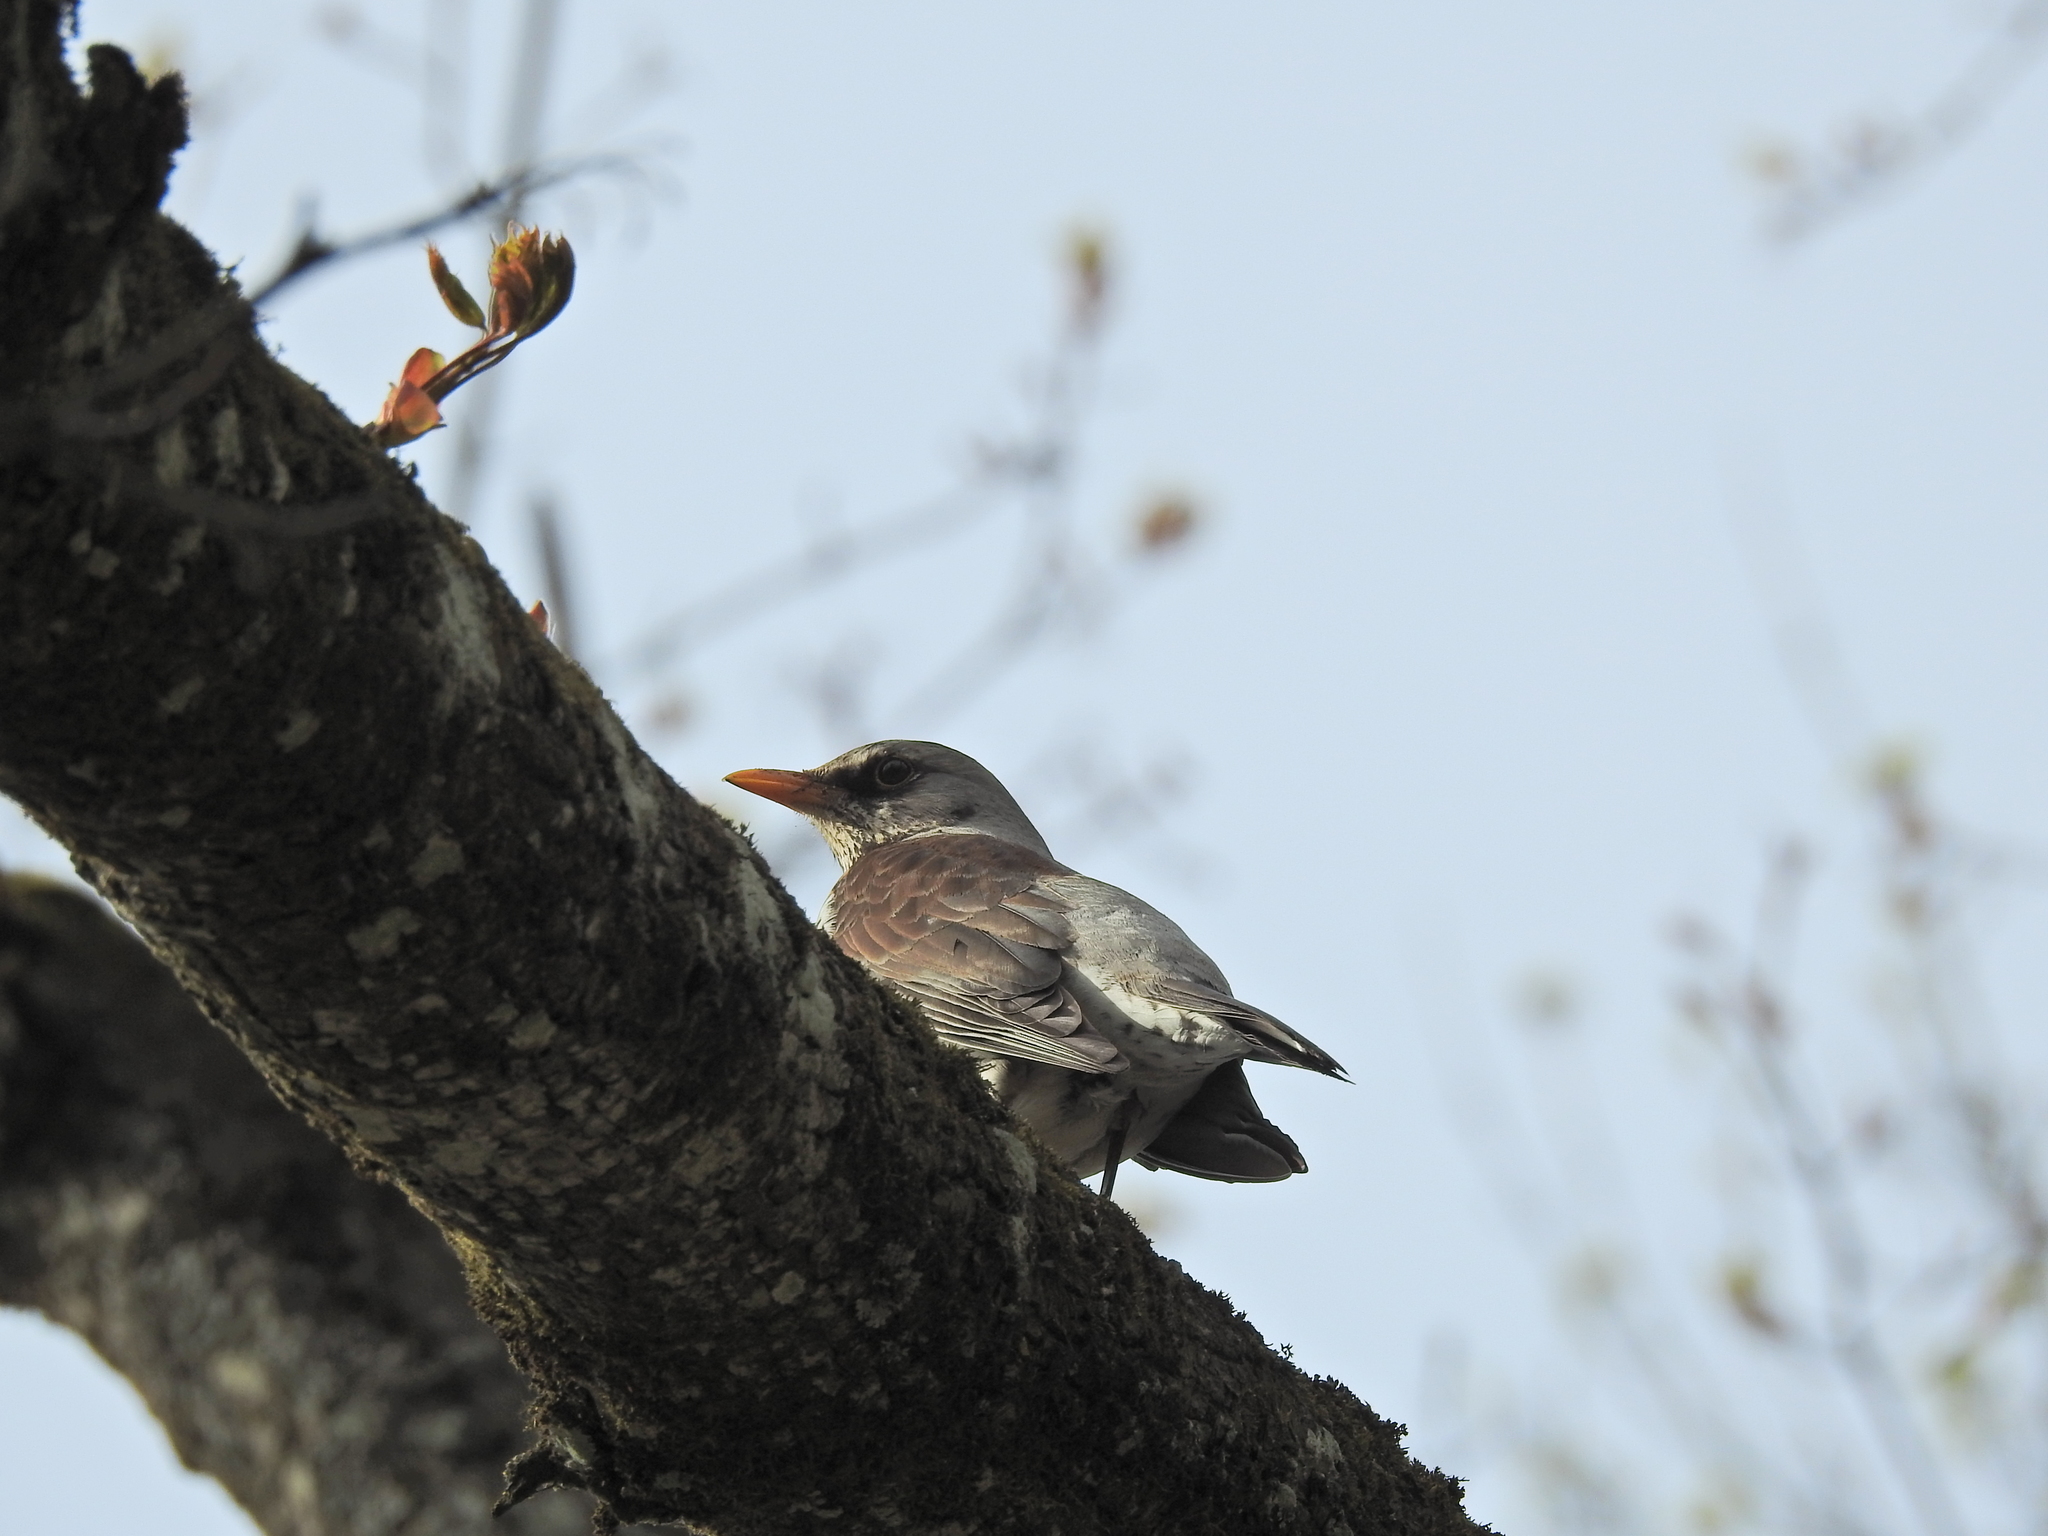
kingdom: Animalia
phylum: Chordata
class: Aves
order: Passeriformes
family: Turdidae
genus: Turdus
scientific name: Turdus pilaris
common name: Fieldfare
